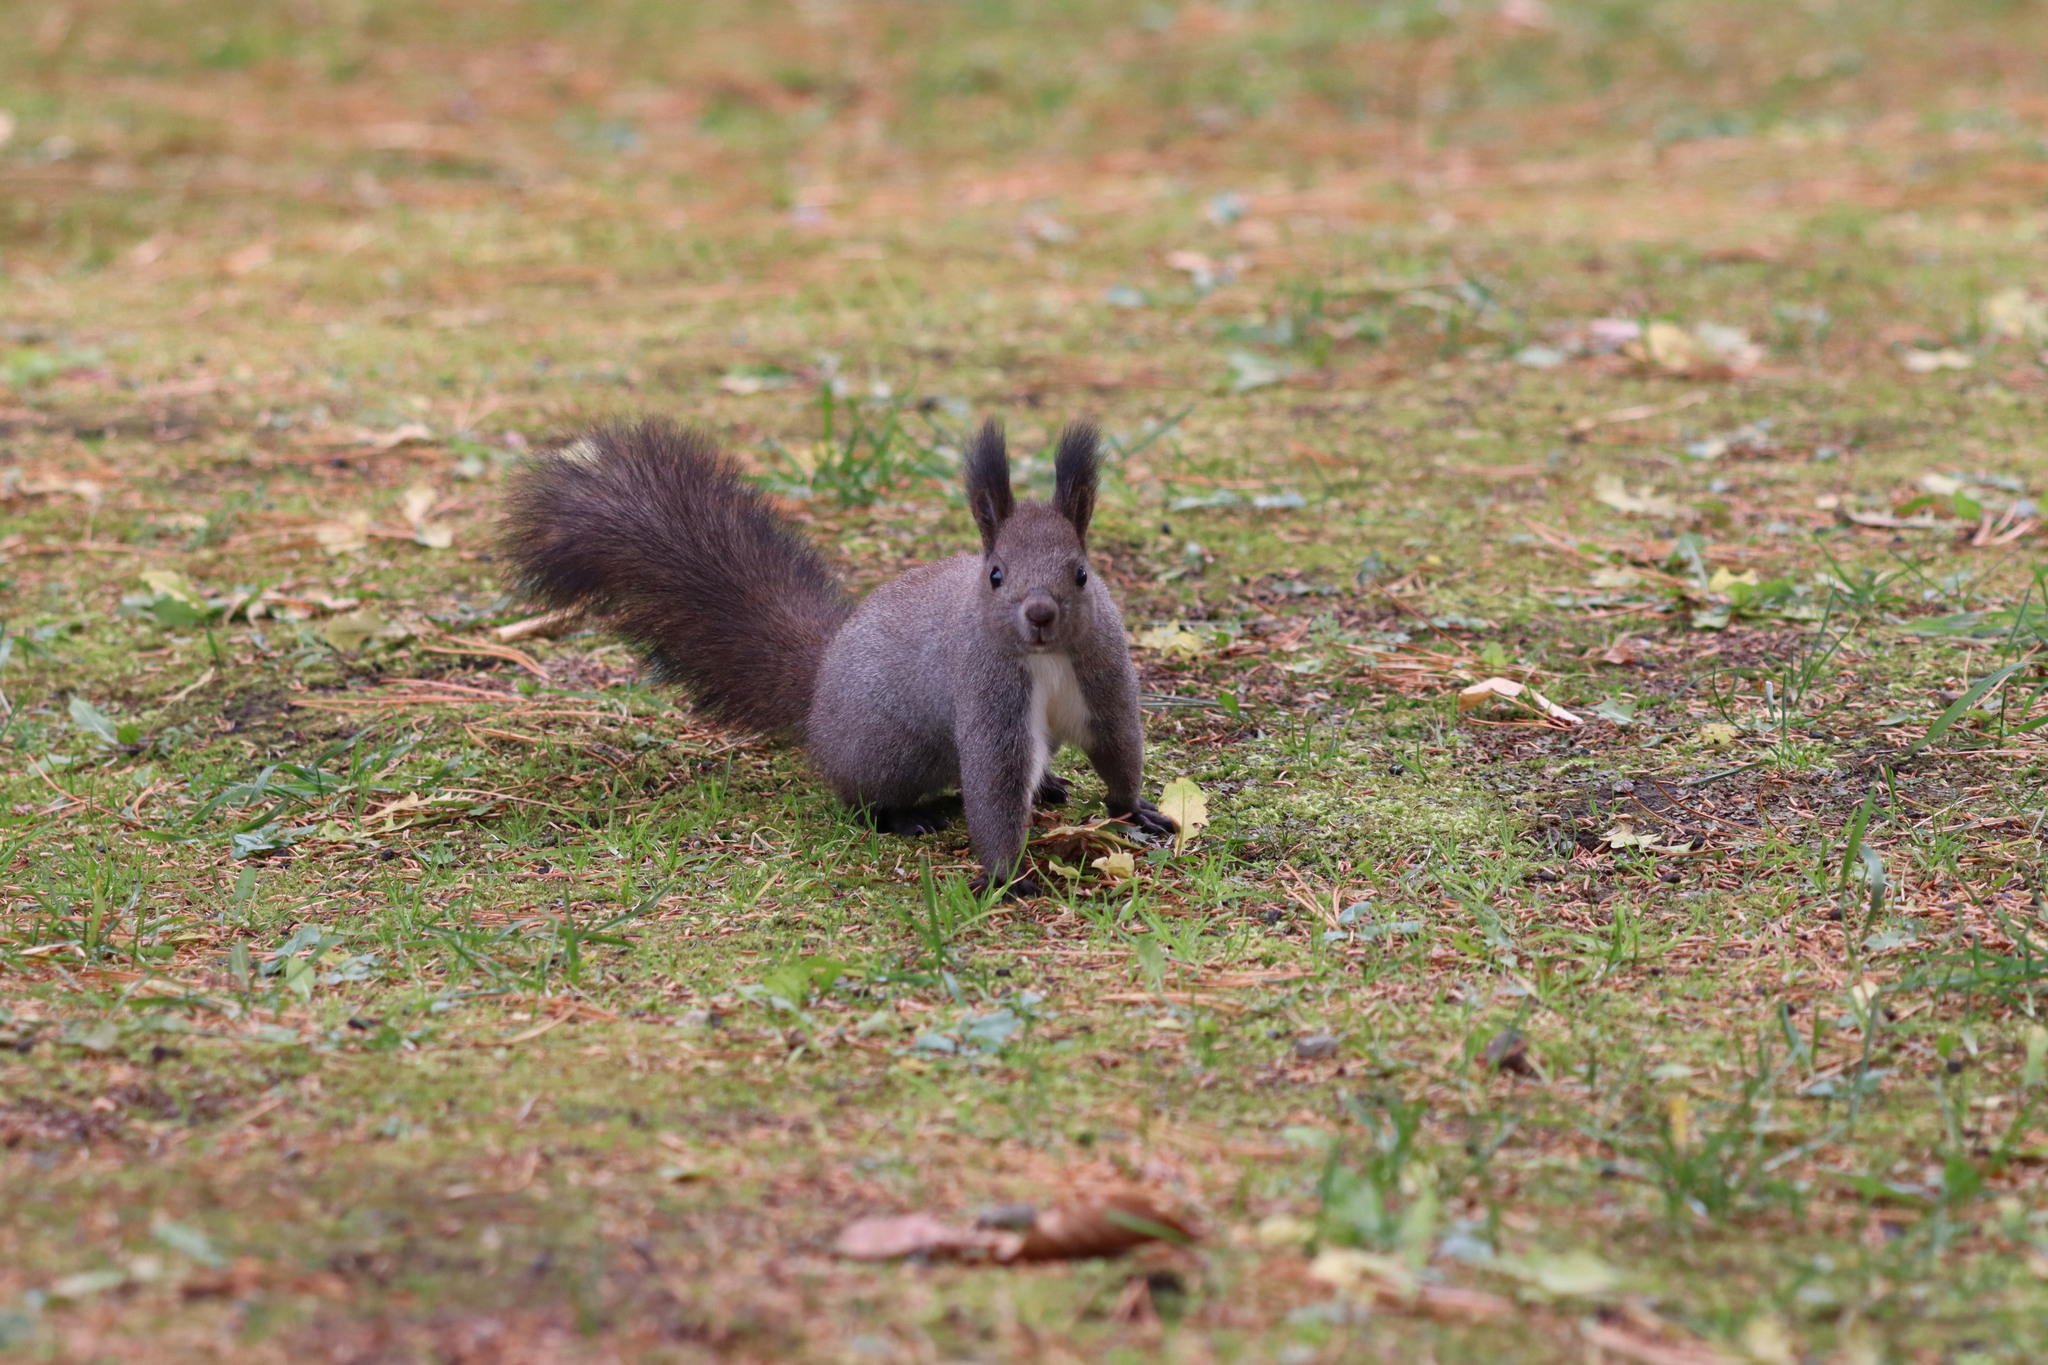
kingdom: Animalia
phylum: Chordata
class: Mammalia
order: Rodentia
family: Sciuridae
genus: Sciurus
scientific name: Sciurus vulgaris
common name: Eurasian red squirrel
